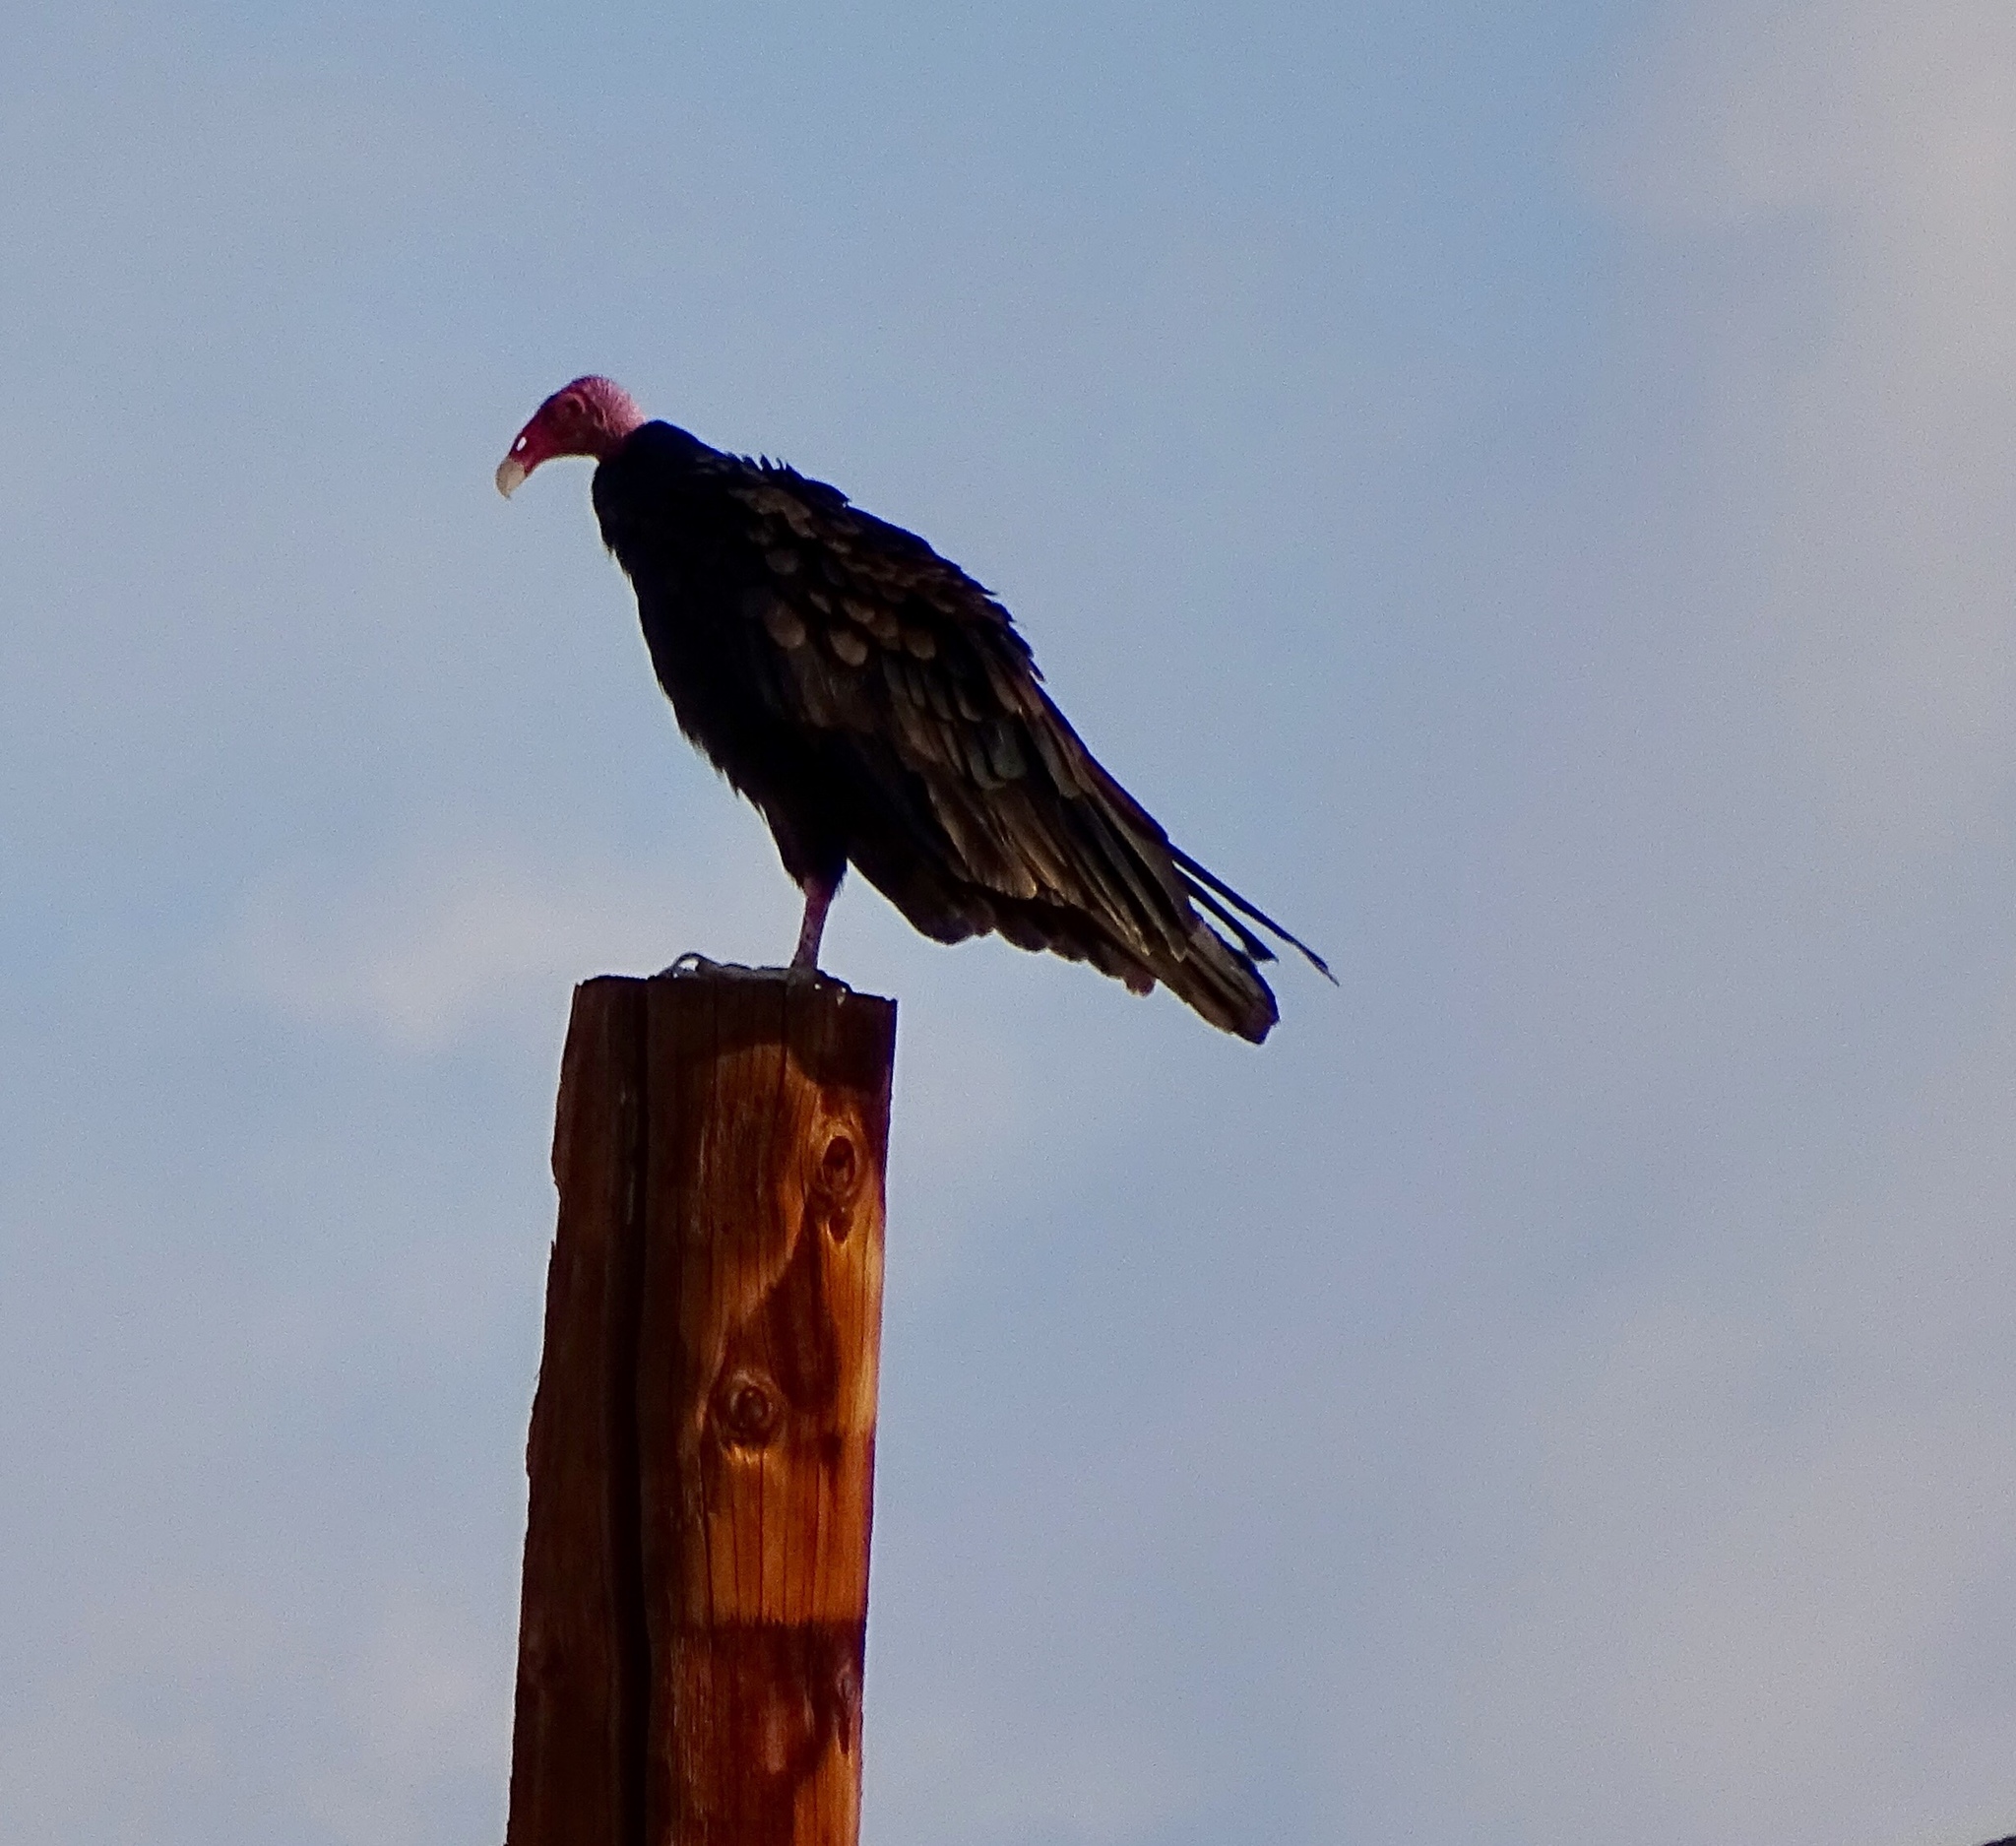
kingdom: Animalia
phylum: Chordata
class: Aves
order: Accipitriformes
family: Cathartidae
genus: Cathartes
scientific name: Cathartes aura
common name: Turkey vulture
